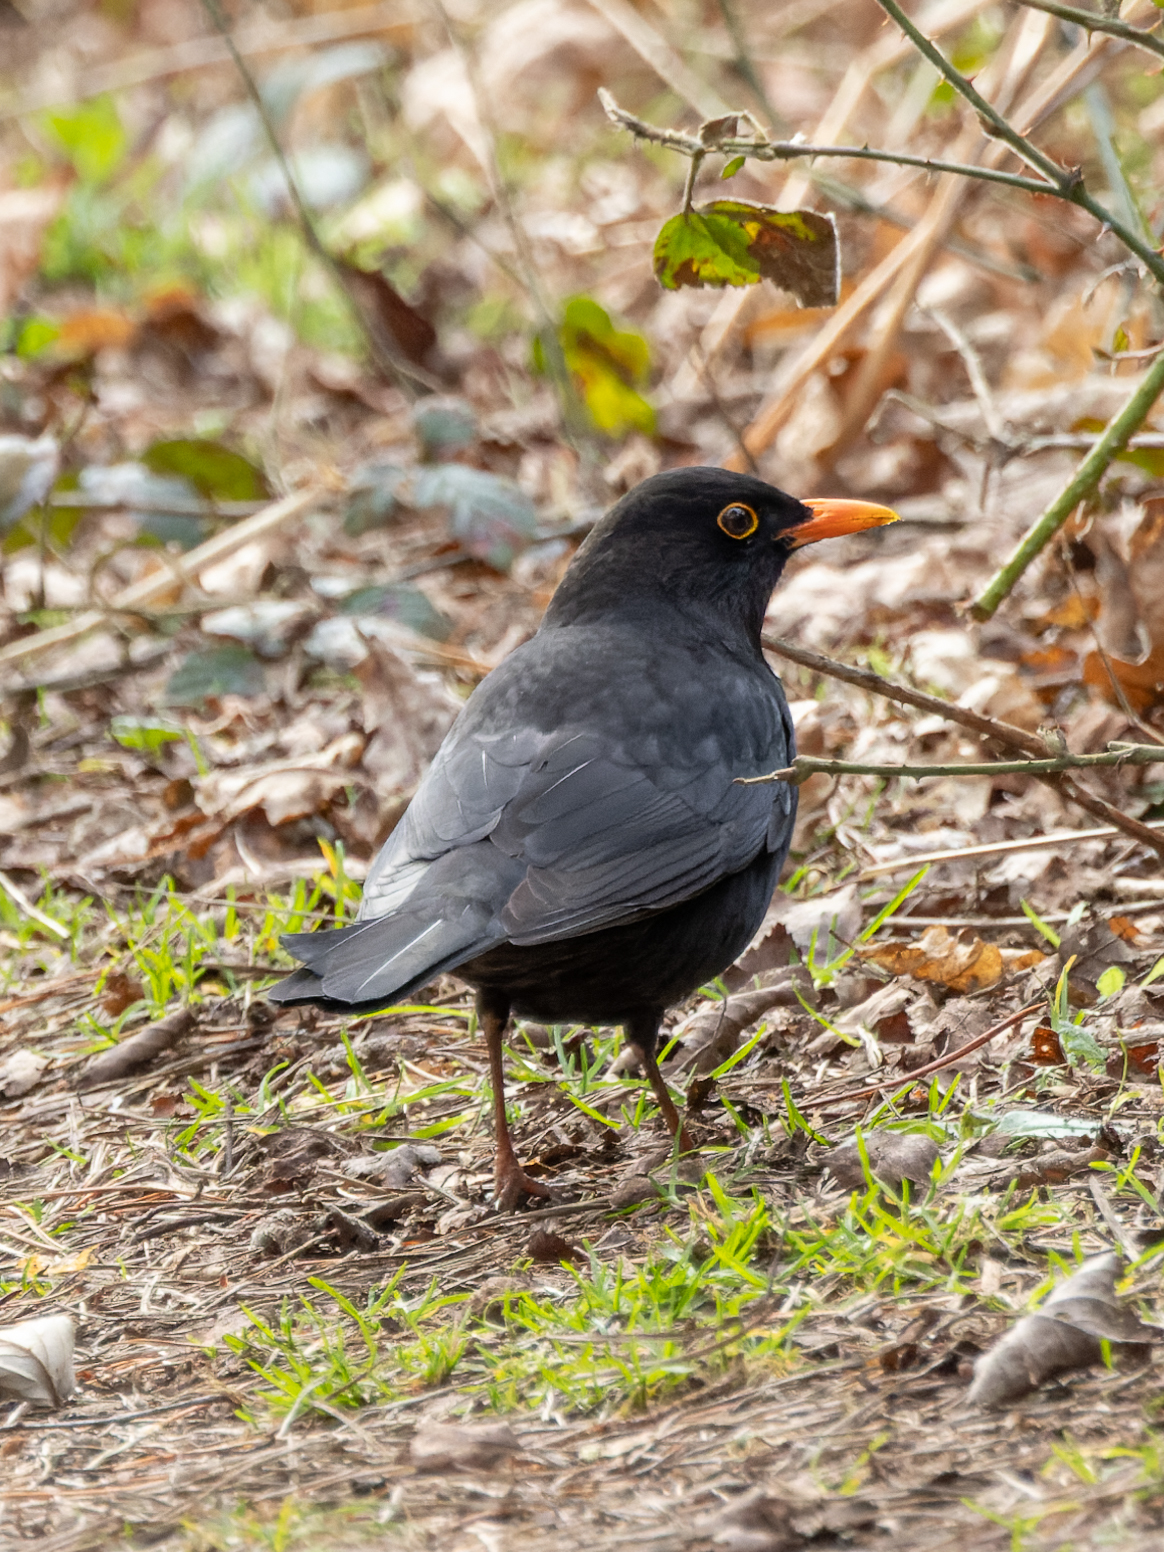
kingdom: Animalia
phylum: Chordata
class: Aves
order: Passeriformes
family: Turdidae
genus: Turdus
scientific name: Turdus merula
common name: Common blackbird
